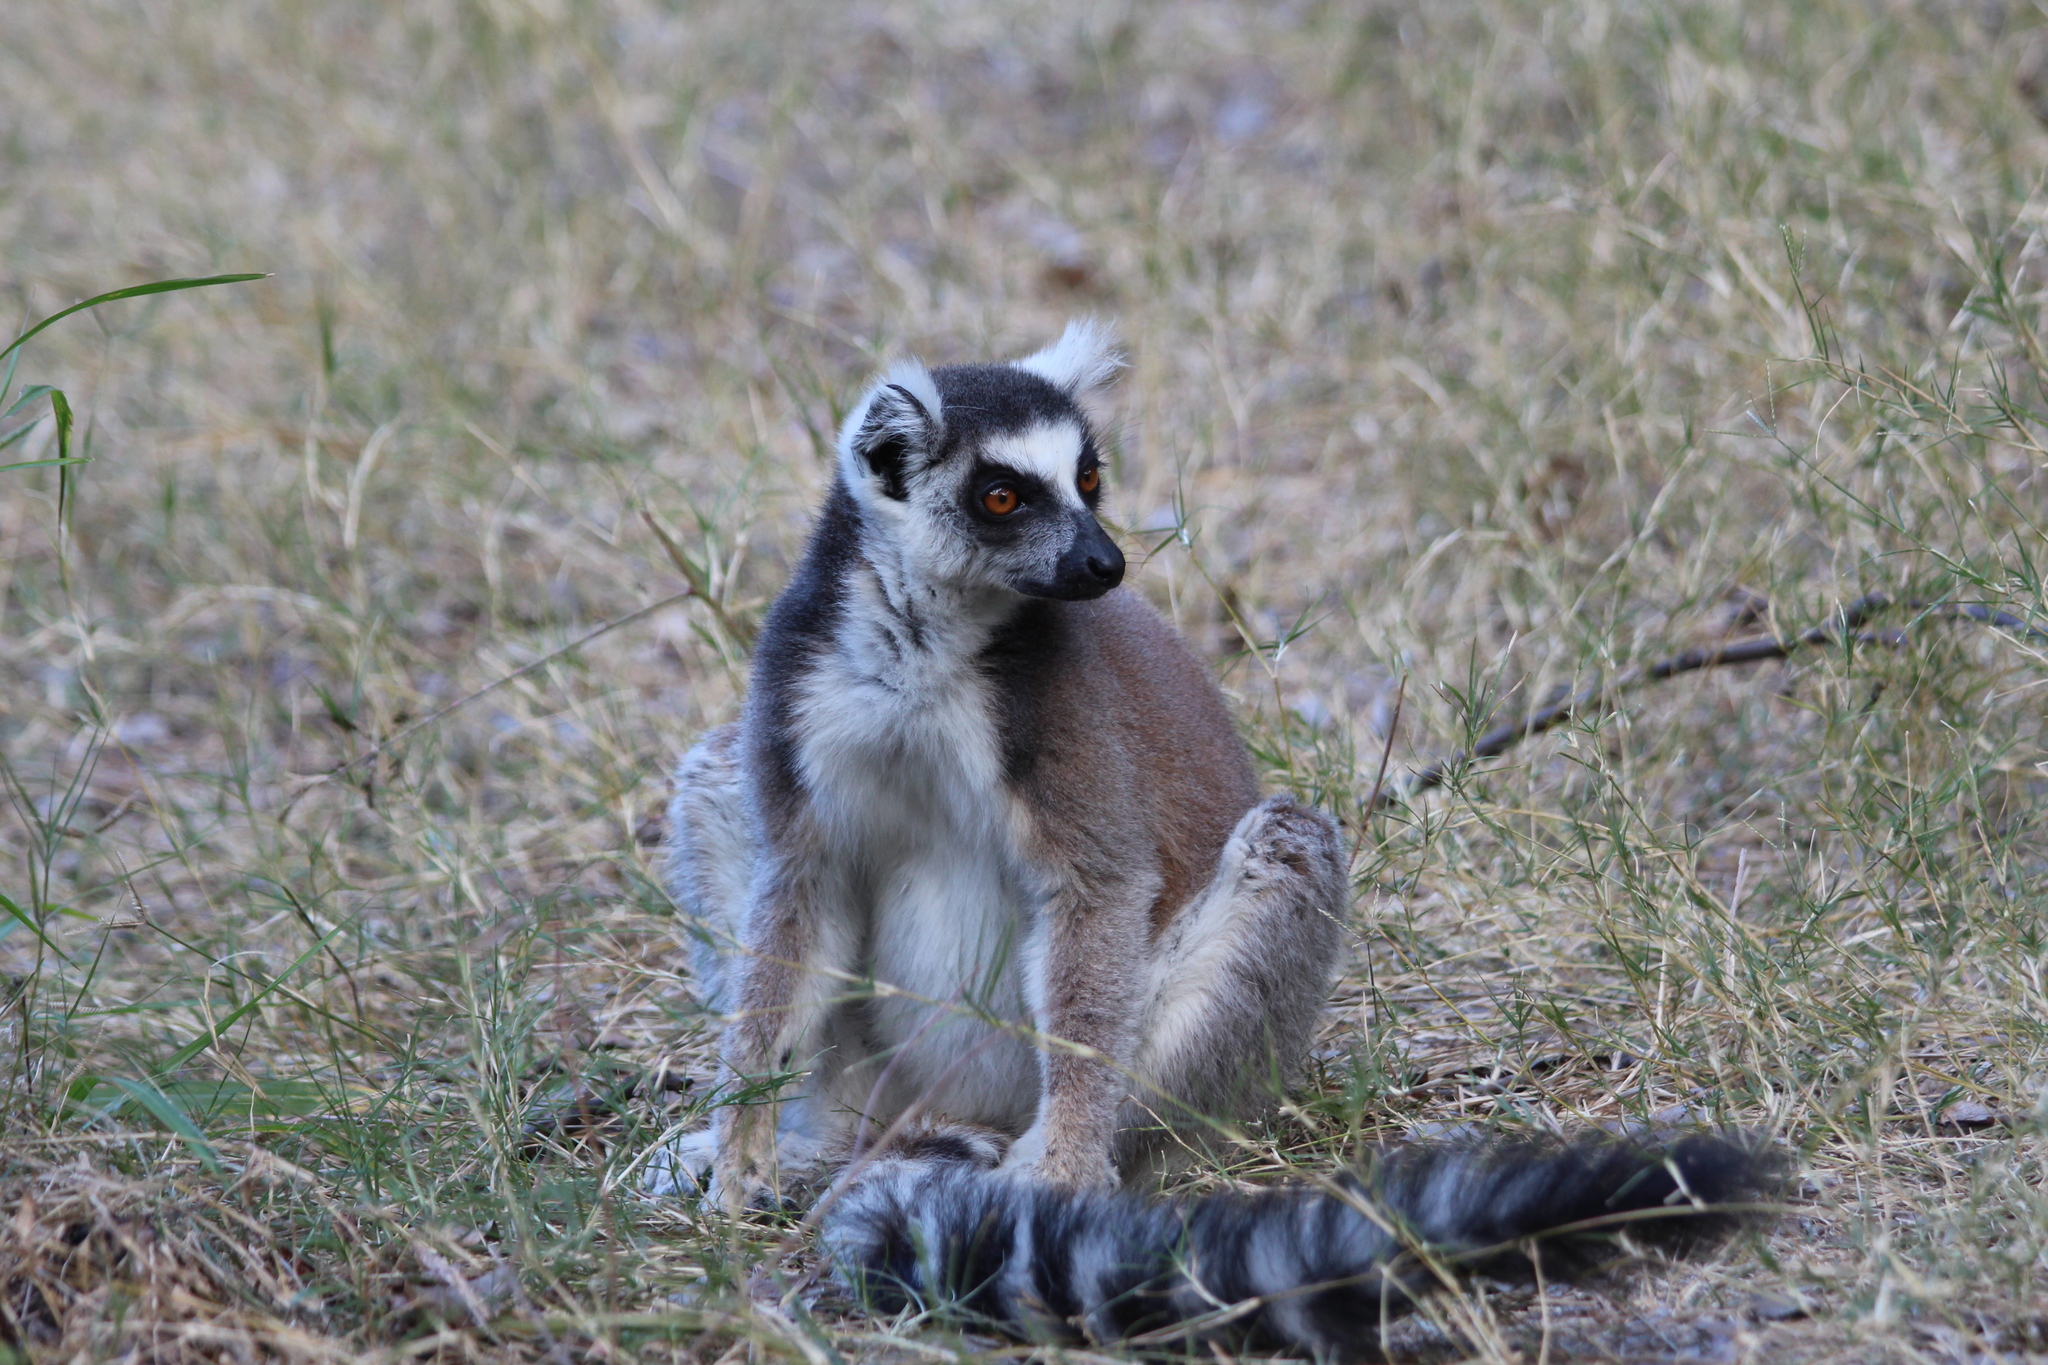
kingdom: Animalia
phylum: Chordata
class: Mammalia
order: Primates
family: Lemuridae
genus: Lemur
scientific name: Lemur catta
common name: Ring-tailed lemur
